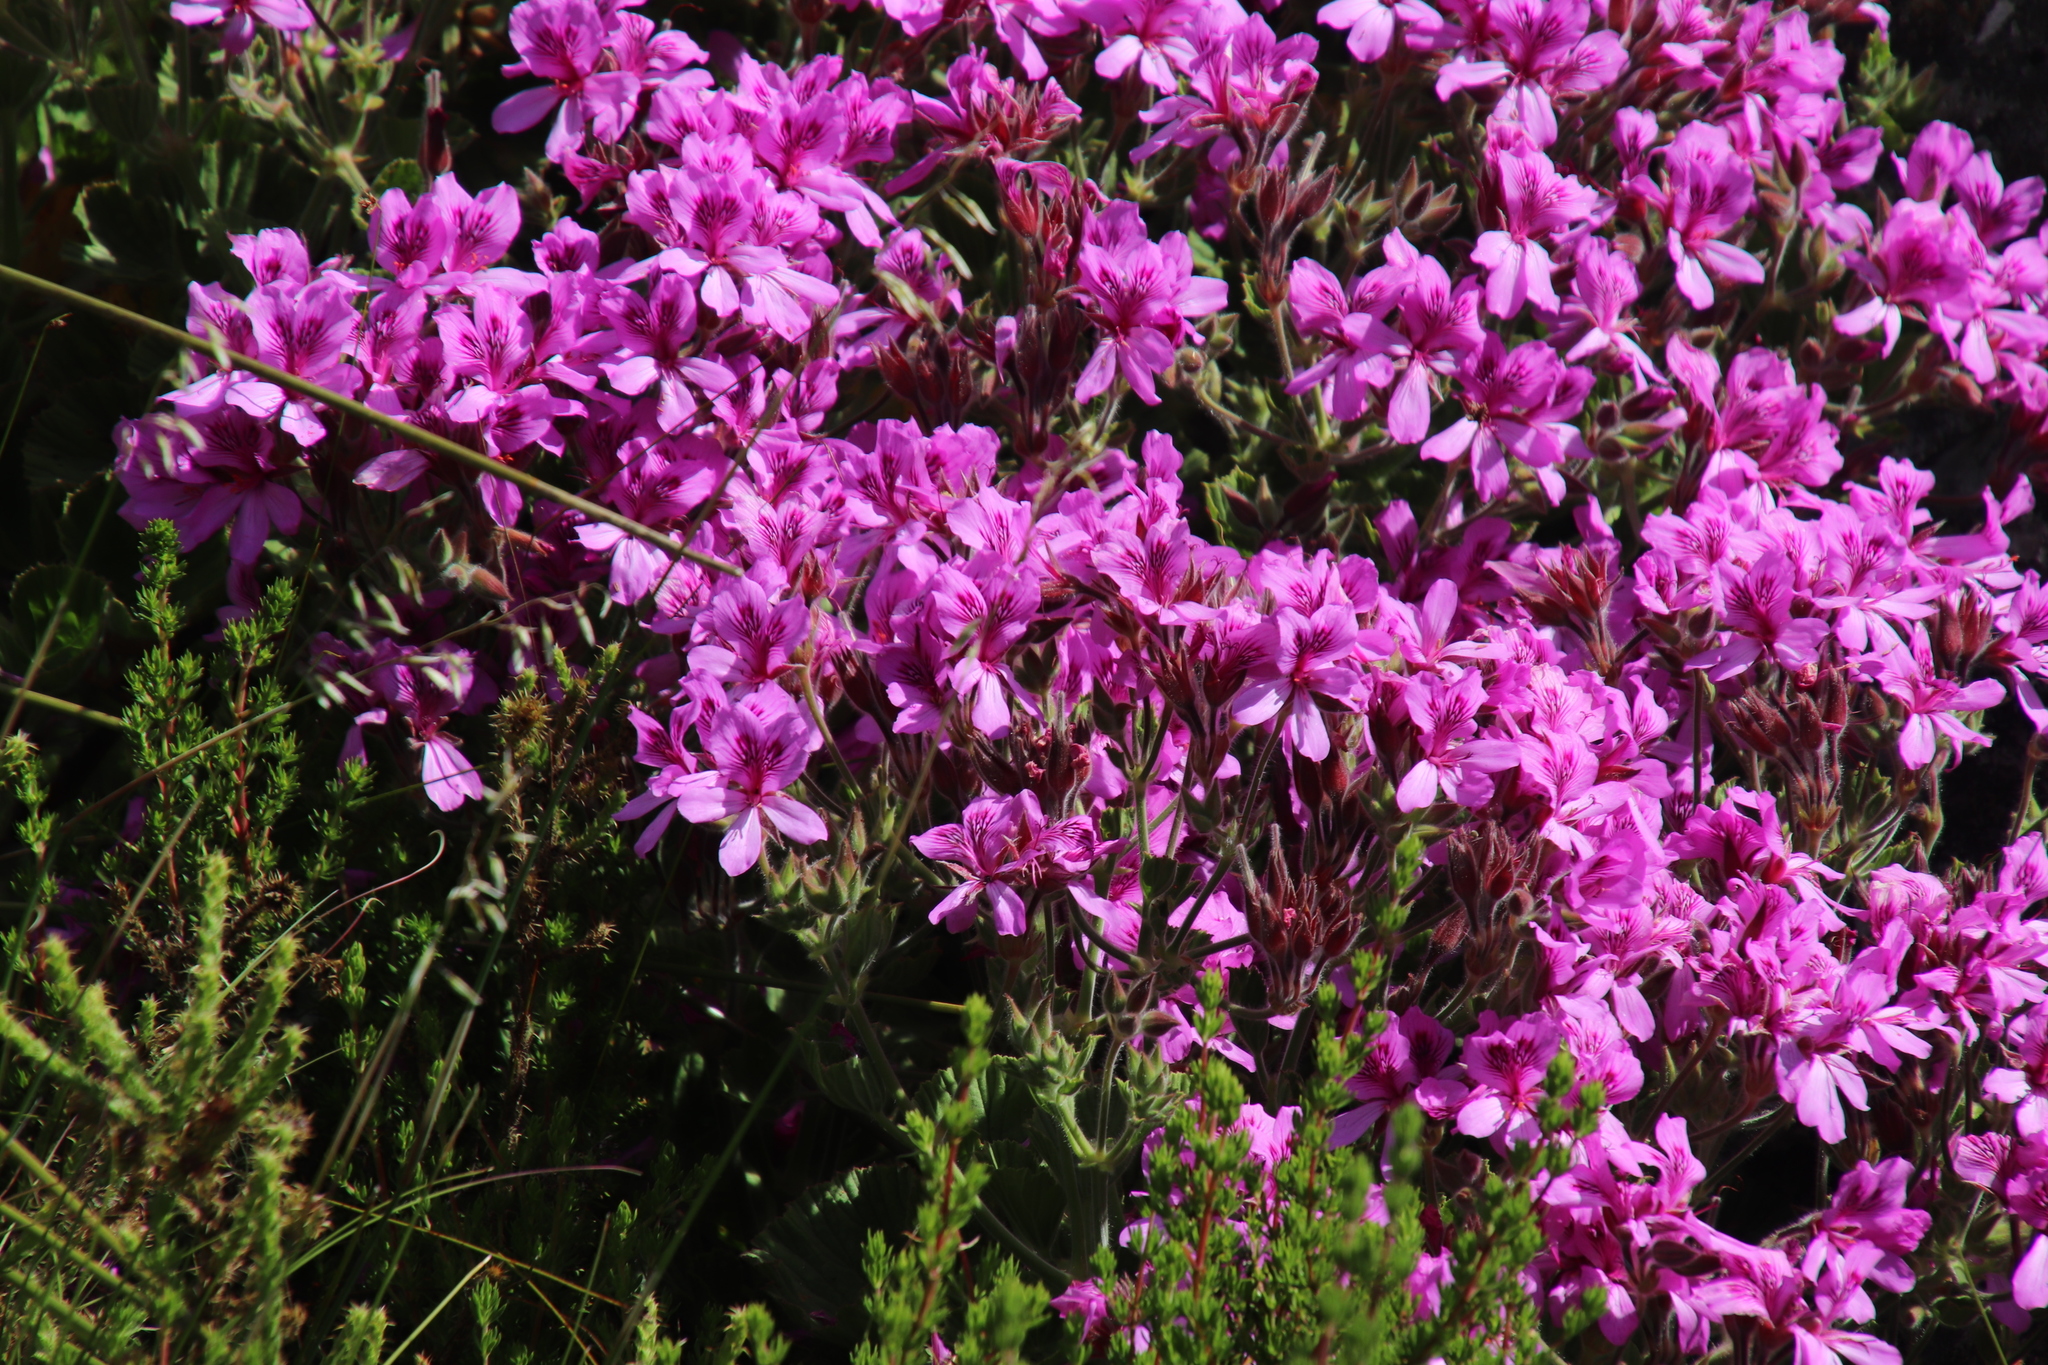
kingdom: Plantae
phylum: Tracheophyta
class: Magnoliopsida
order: Geraniales
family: Geraniaceae
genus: Pelargonium
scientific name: Pelargonium cucullatum
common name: Tree pelargonium
